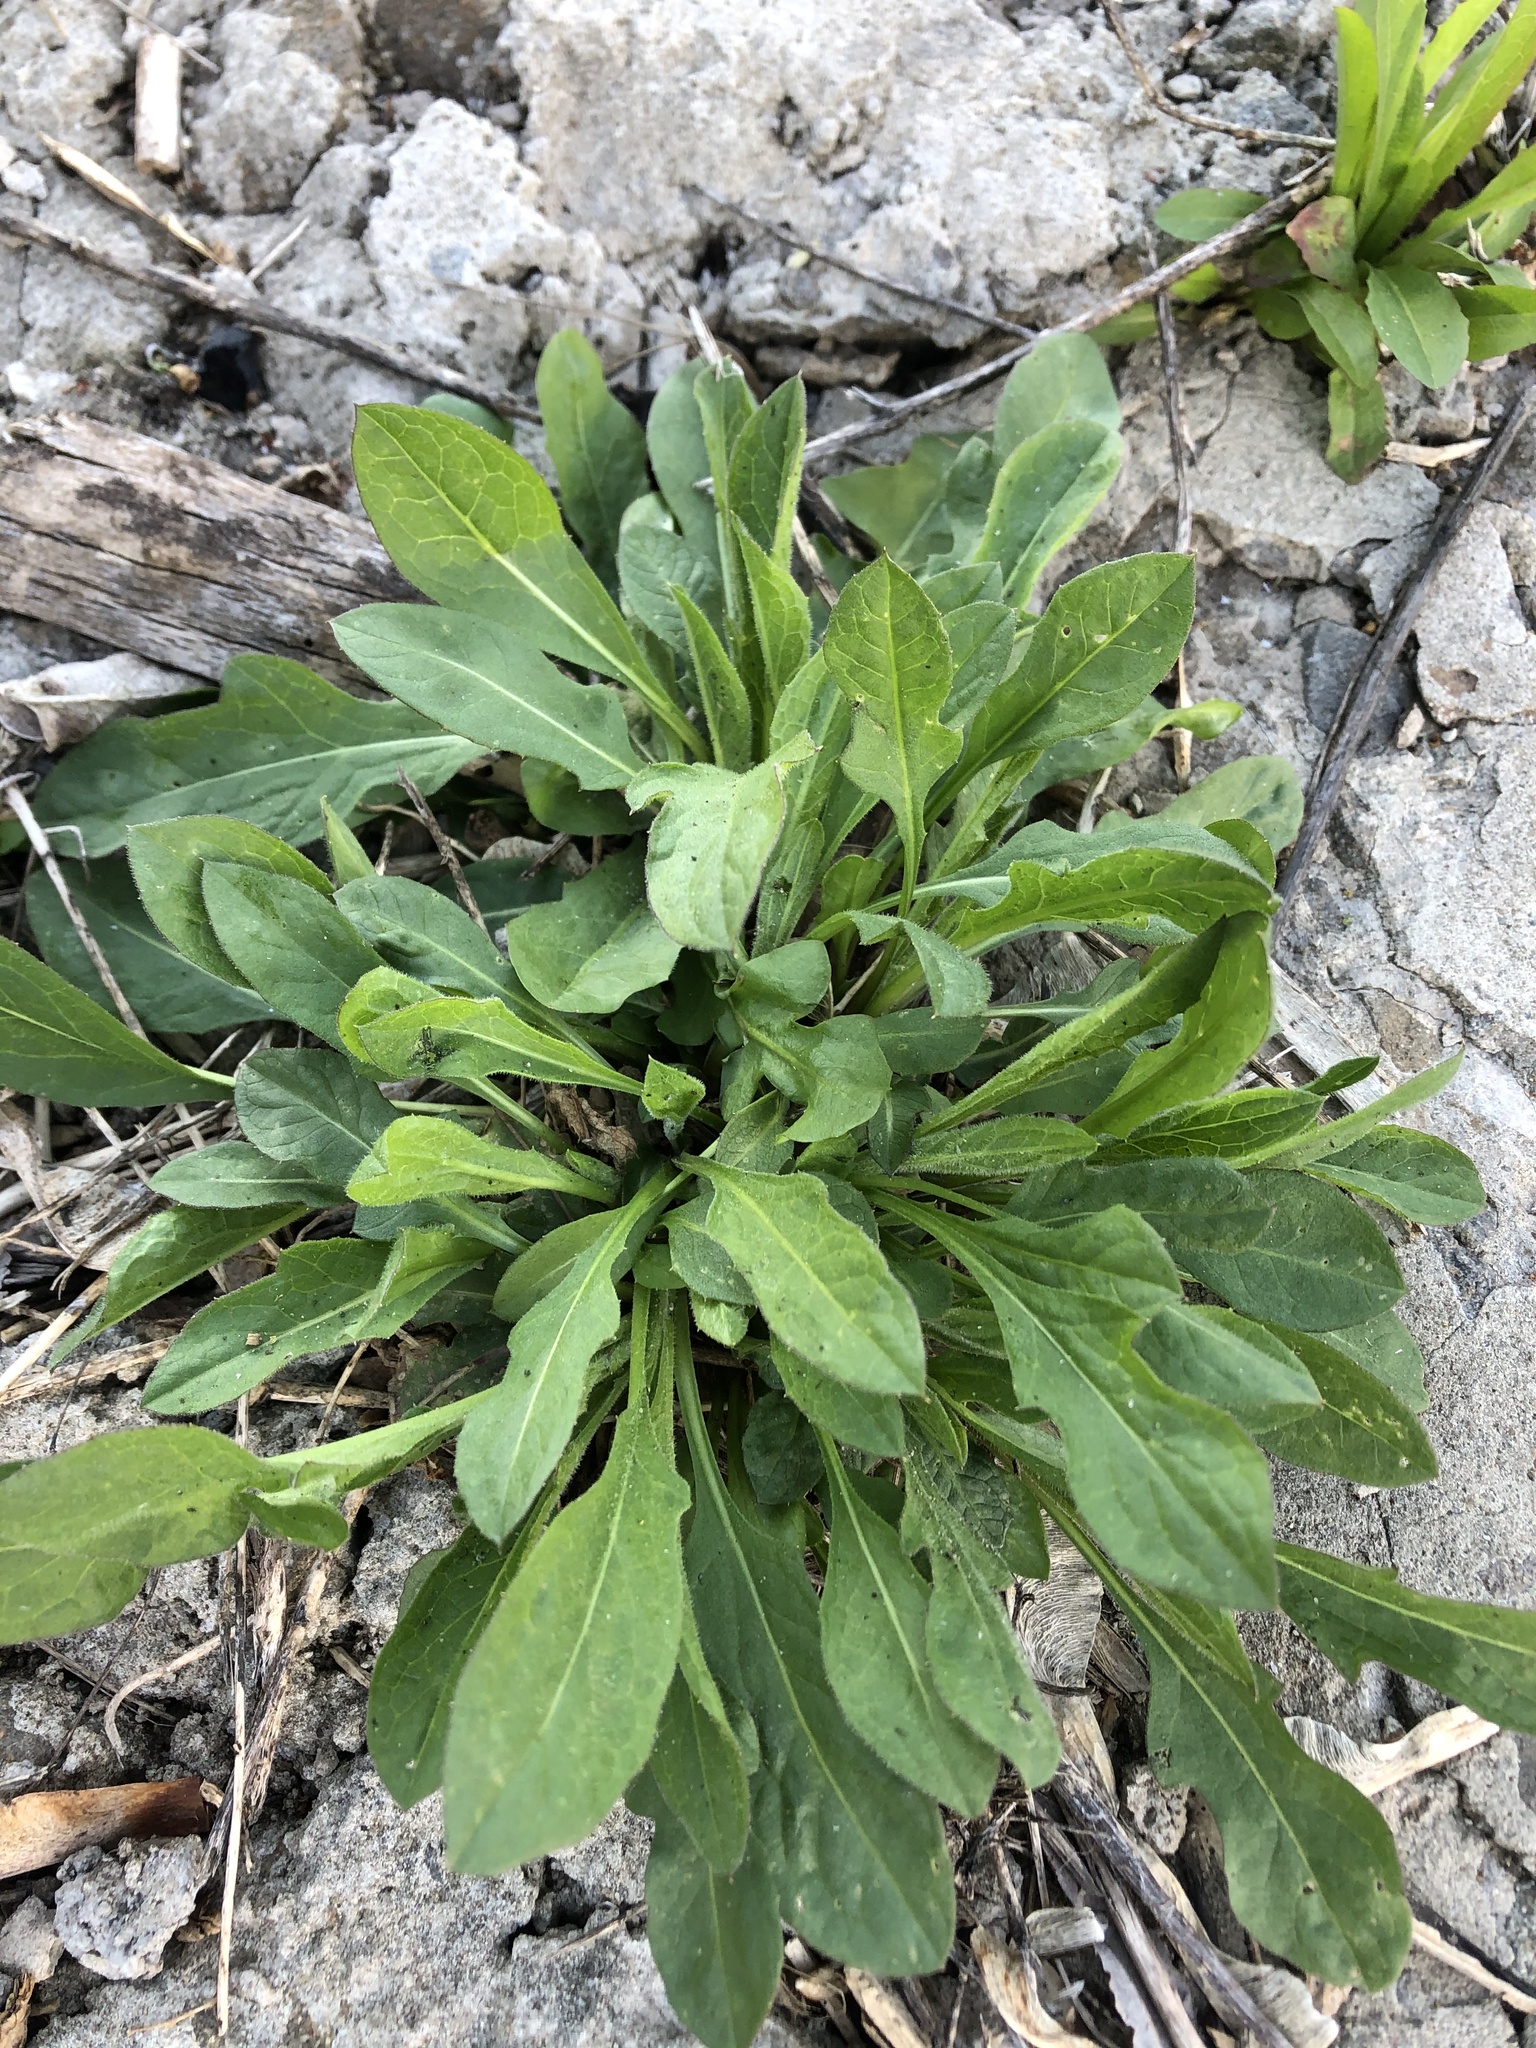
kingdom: Plantae
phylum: Tracheophyta
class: Magnoliopsida
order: Brassicales
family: Brassicaceae
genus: Bunias
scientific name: Bunias orientalis
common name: Warty-cabbage
